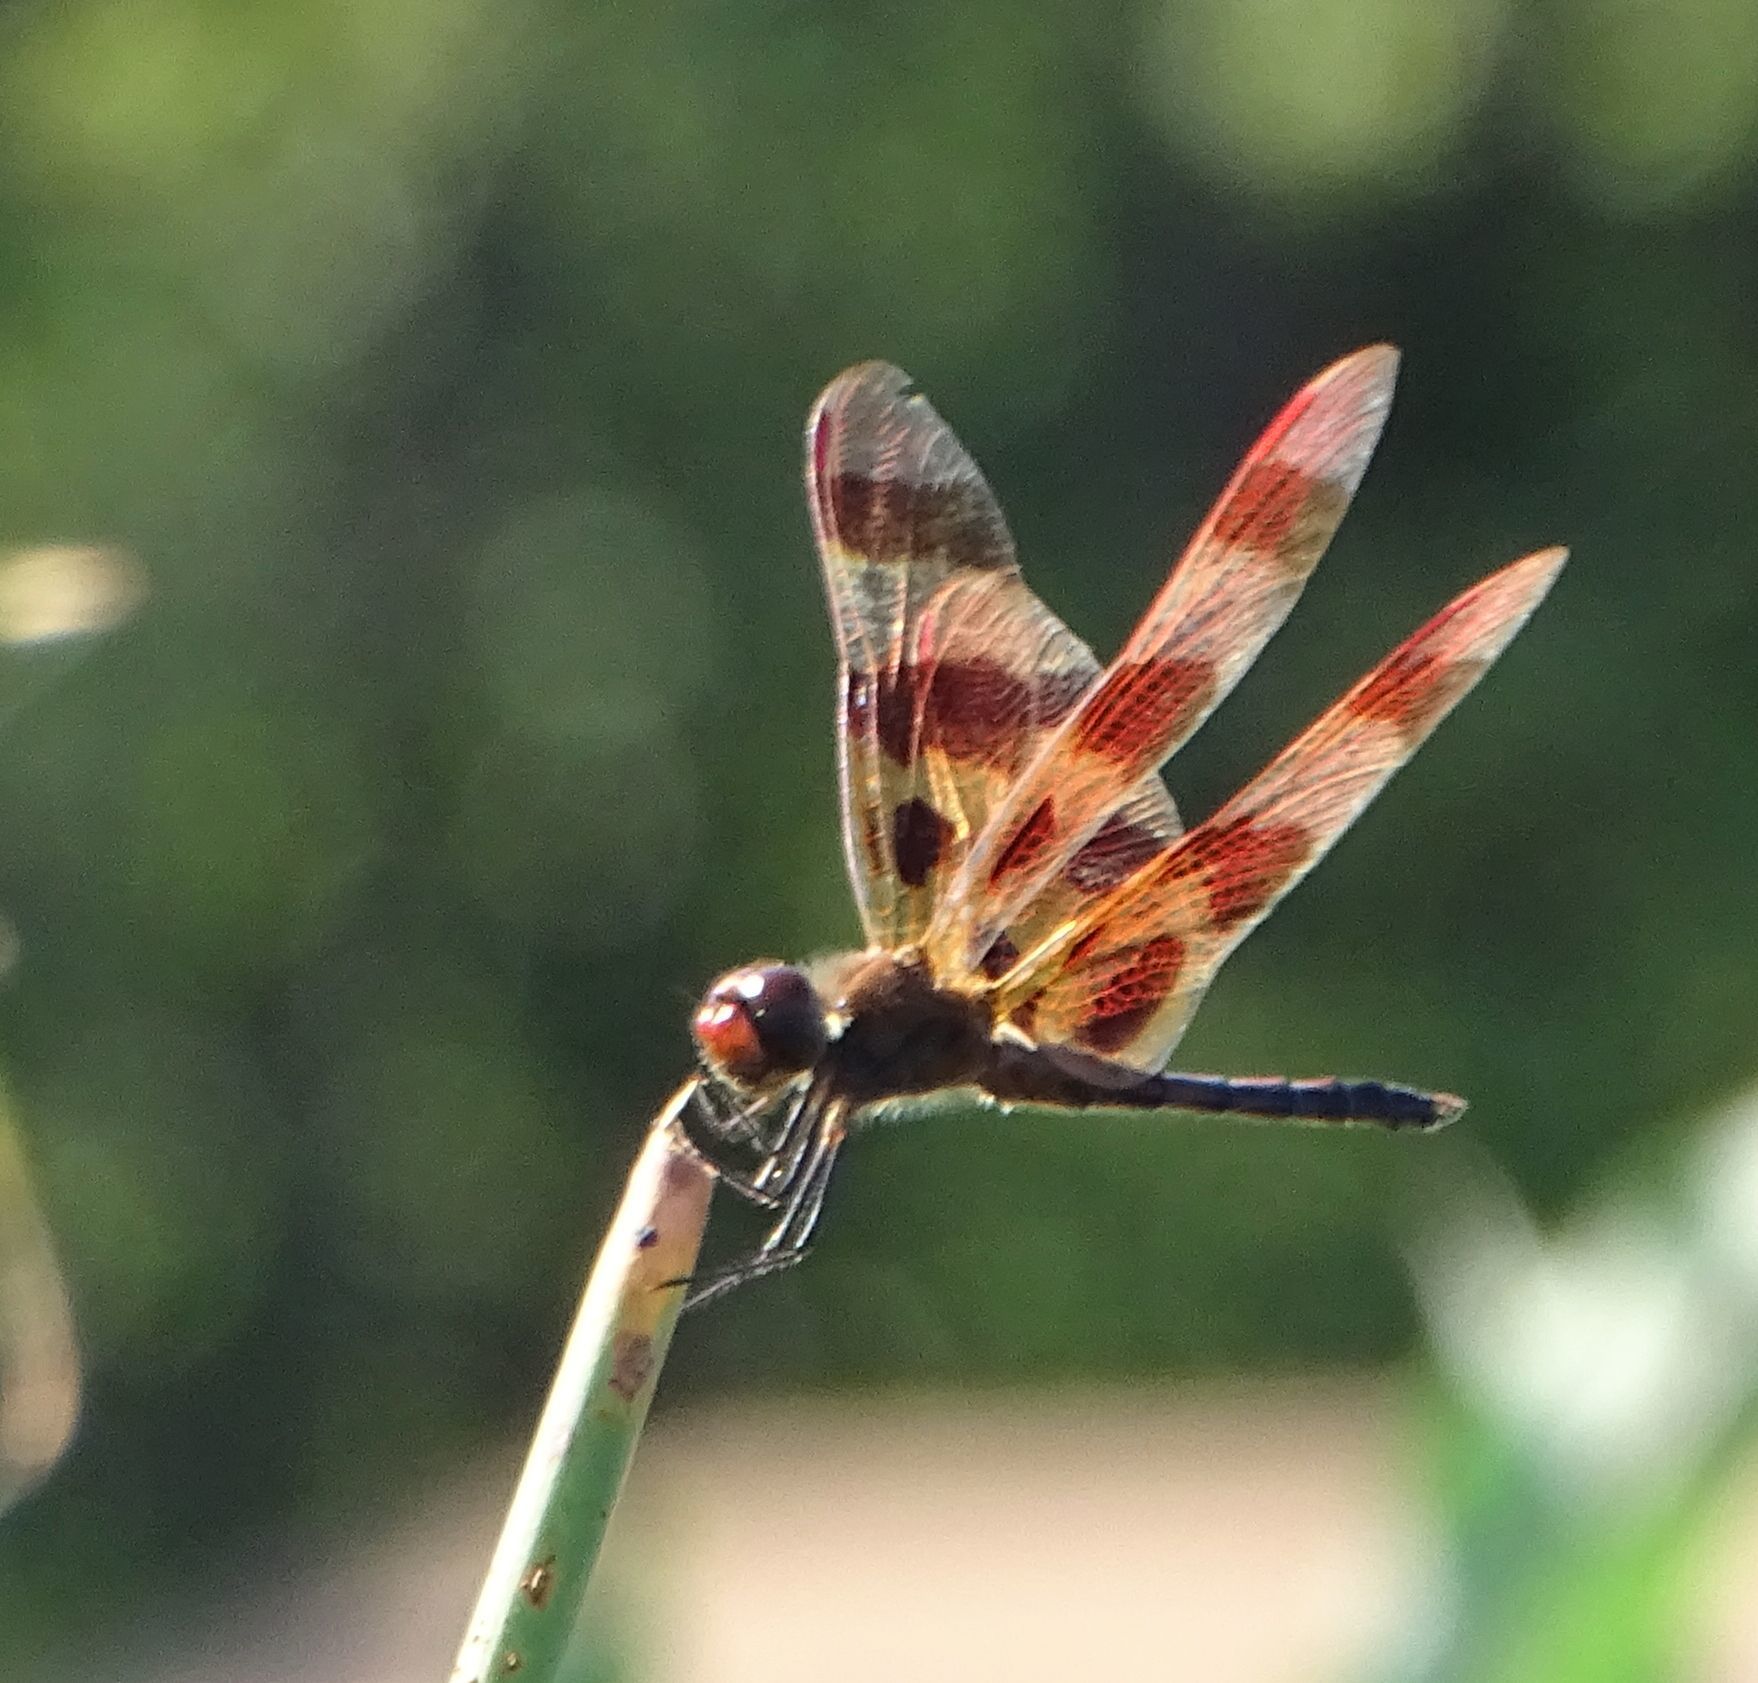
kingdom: Animalia
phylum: Arthropoda
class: Insecta
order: Odonata
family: Libellulidae
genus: Celithemis
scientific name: Celithemis eponina
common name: Halloween pennant
